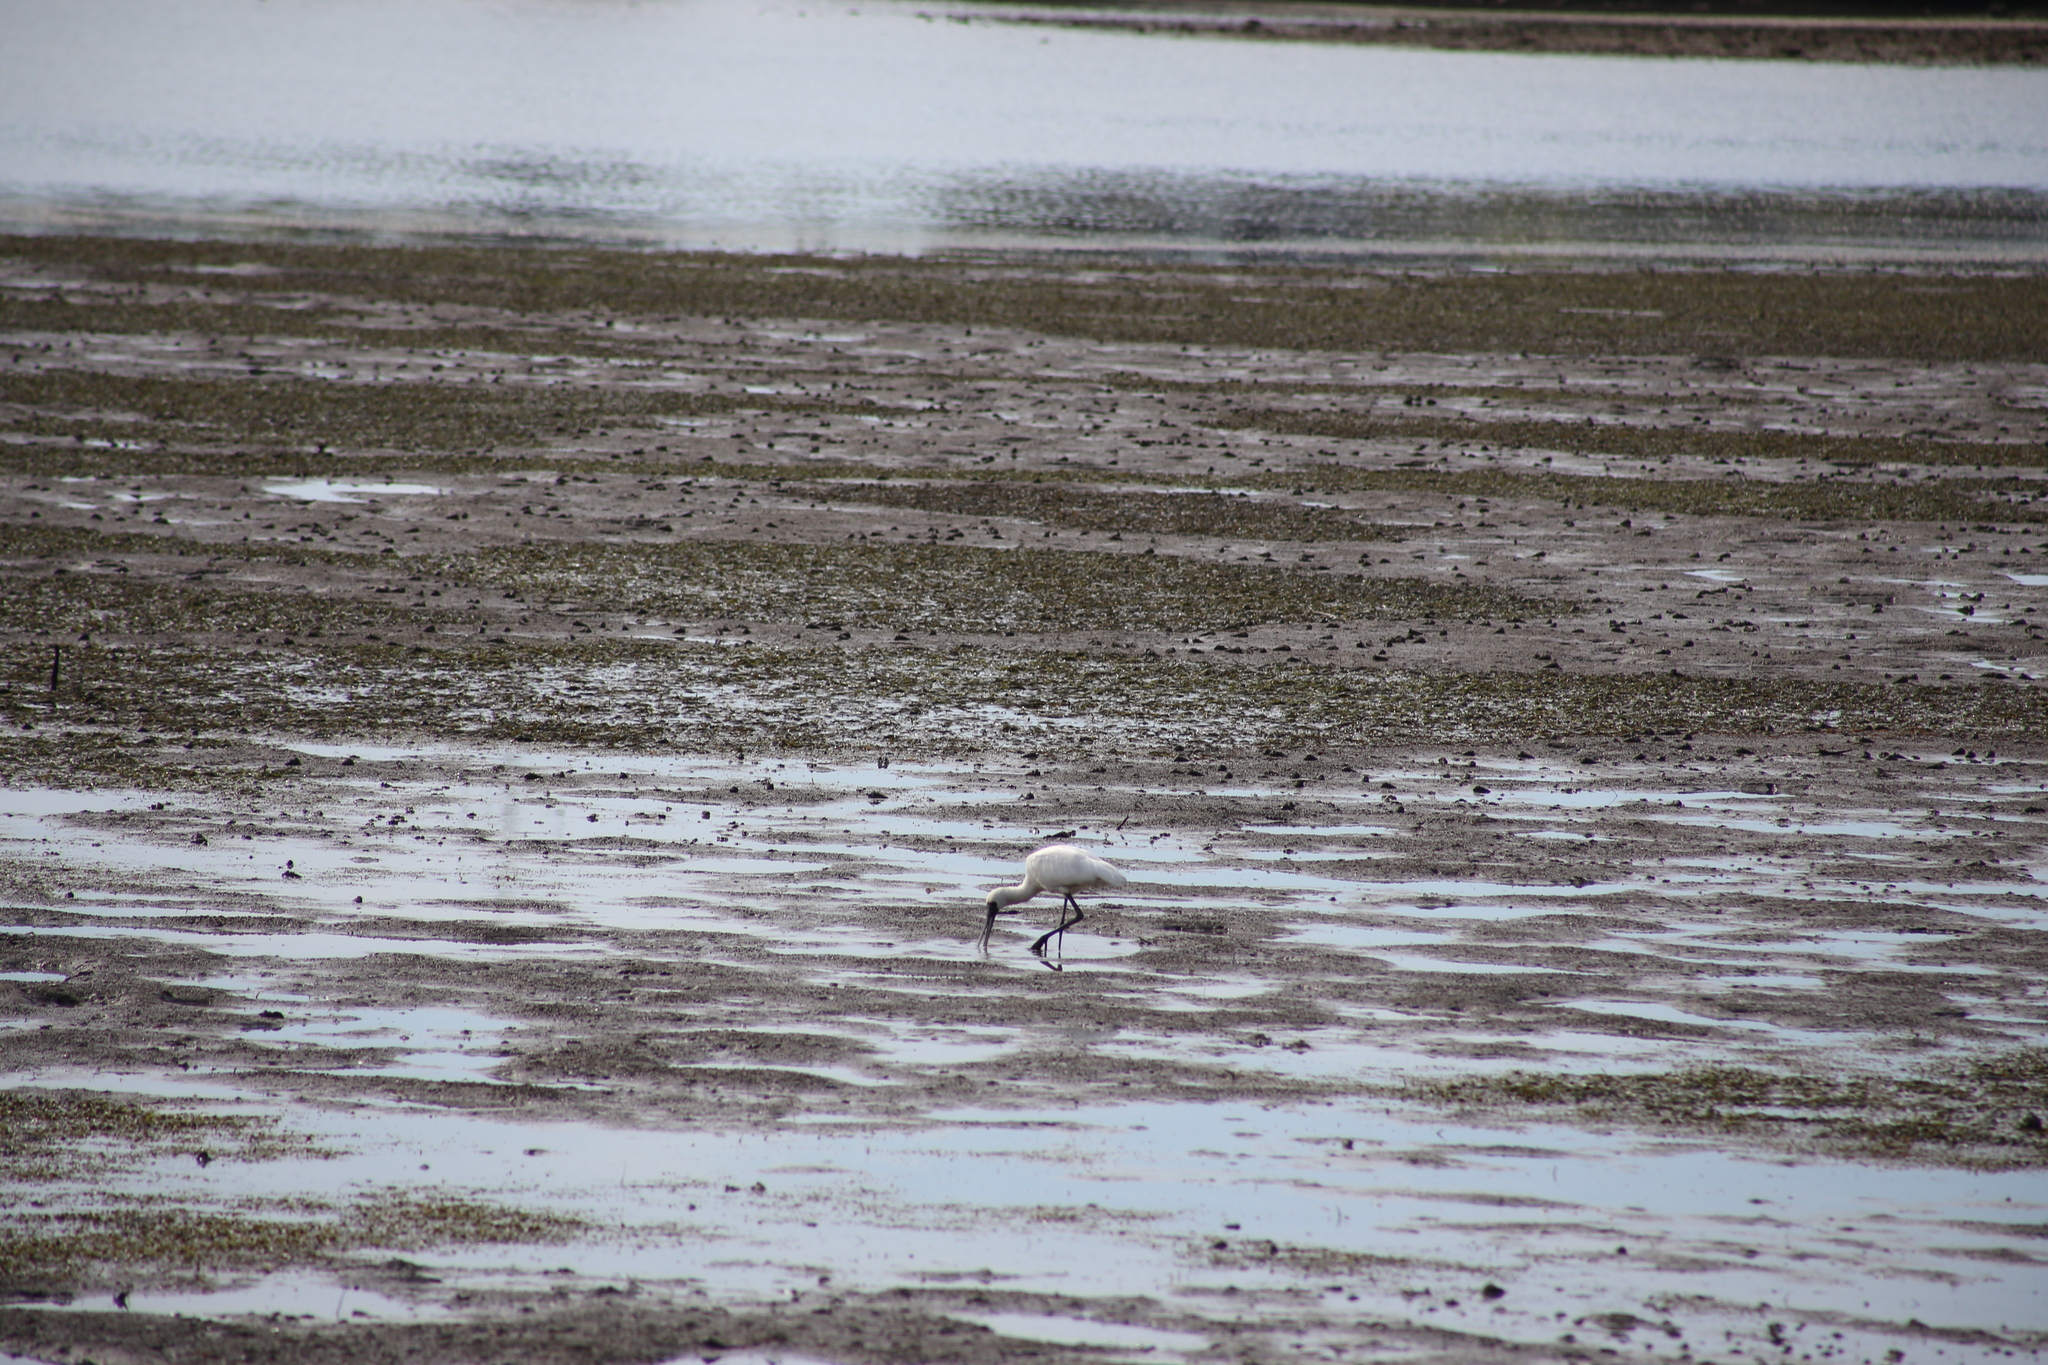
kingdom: Animalia
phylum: Chordata
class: Aves
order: Pelecaniformes
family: Threskiornithidae
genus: Platalea
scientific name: Platalea regia
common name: Royal spoonbill
